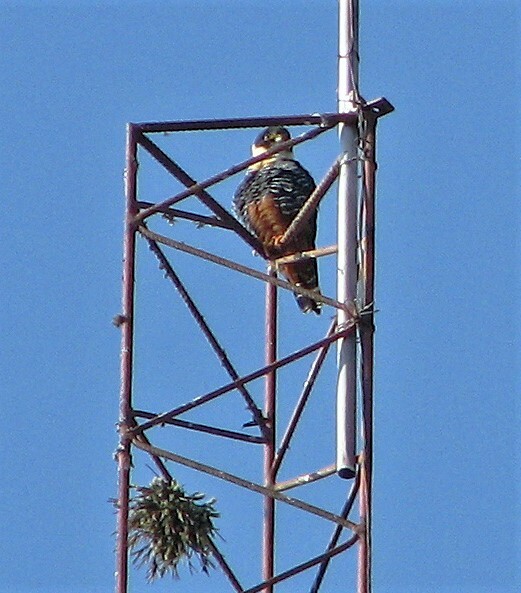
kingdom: Animalia
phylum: Chordata
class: Aves
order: Falconiformes
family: Falconidae
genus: Falco
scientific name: Falco rufigularis
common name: Bat falcon
